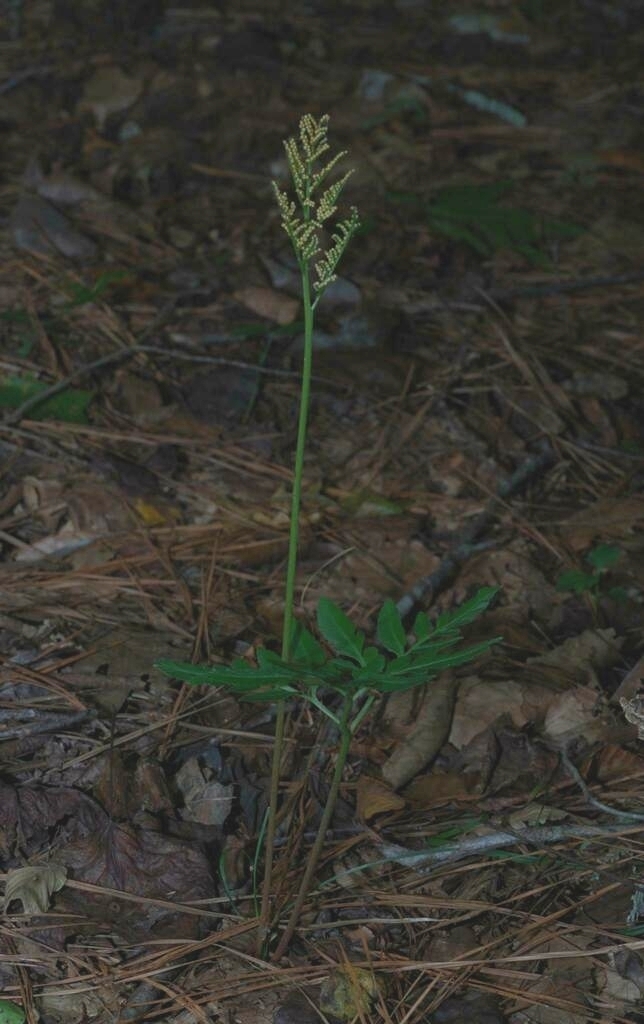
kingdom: Plantae
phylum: Tracheophyta
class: Polypodiopsida
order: Ophioglossales
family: Ophioglossaceae
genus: Sceptridium
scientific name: Sceptridium dissectum
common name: Cut-leaved grapefern
